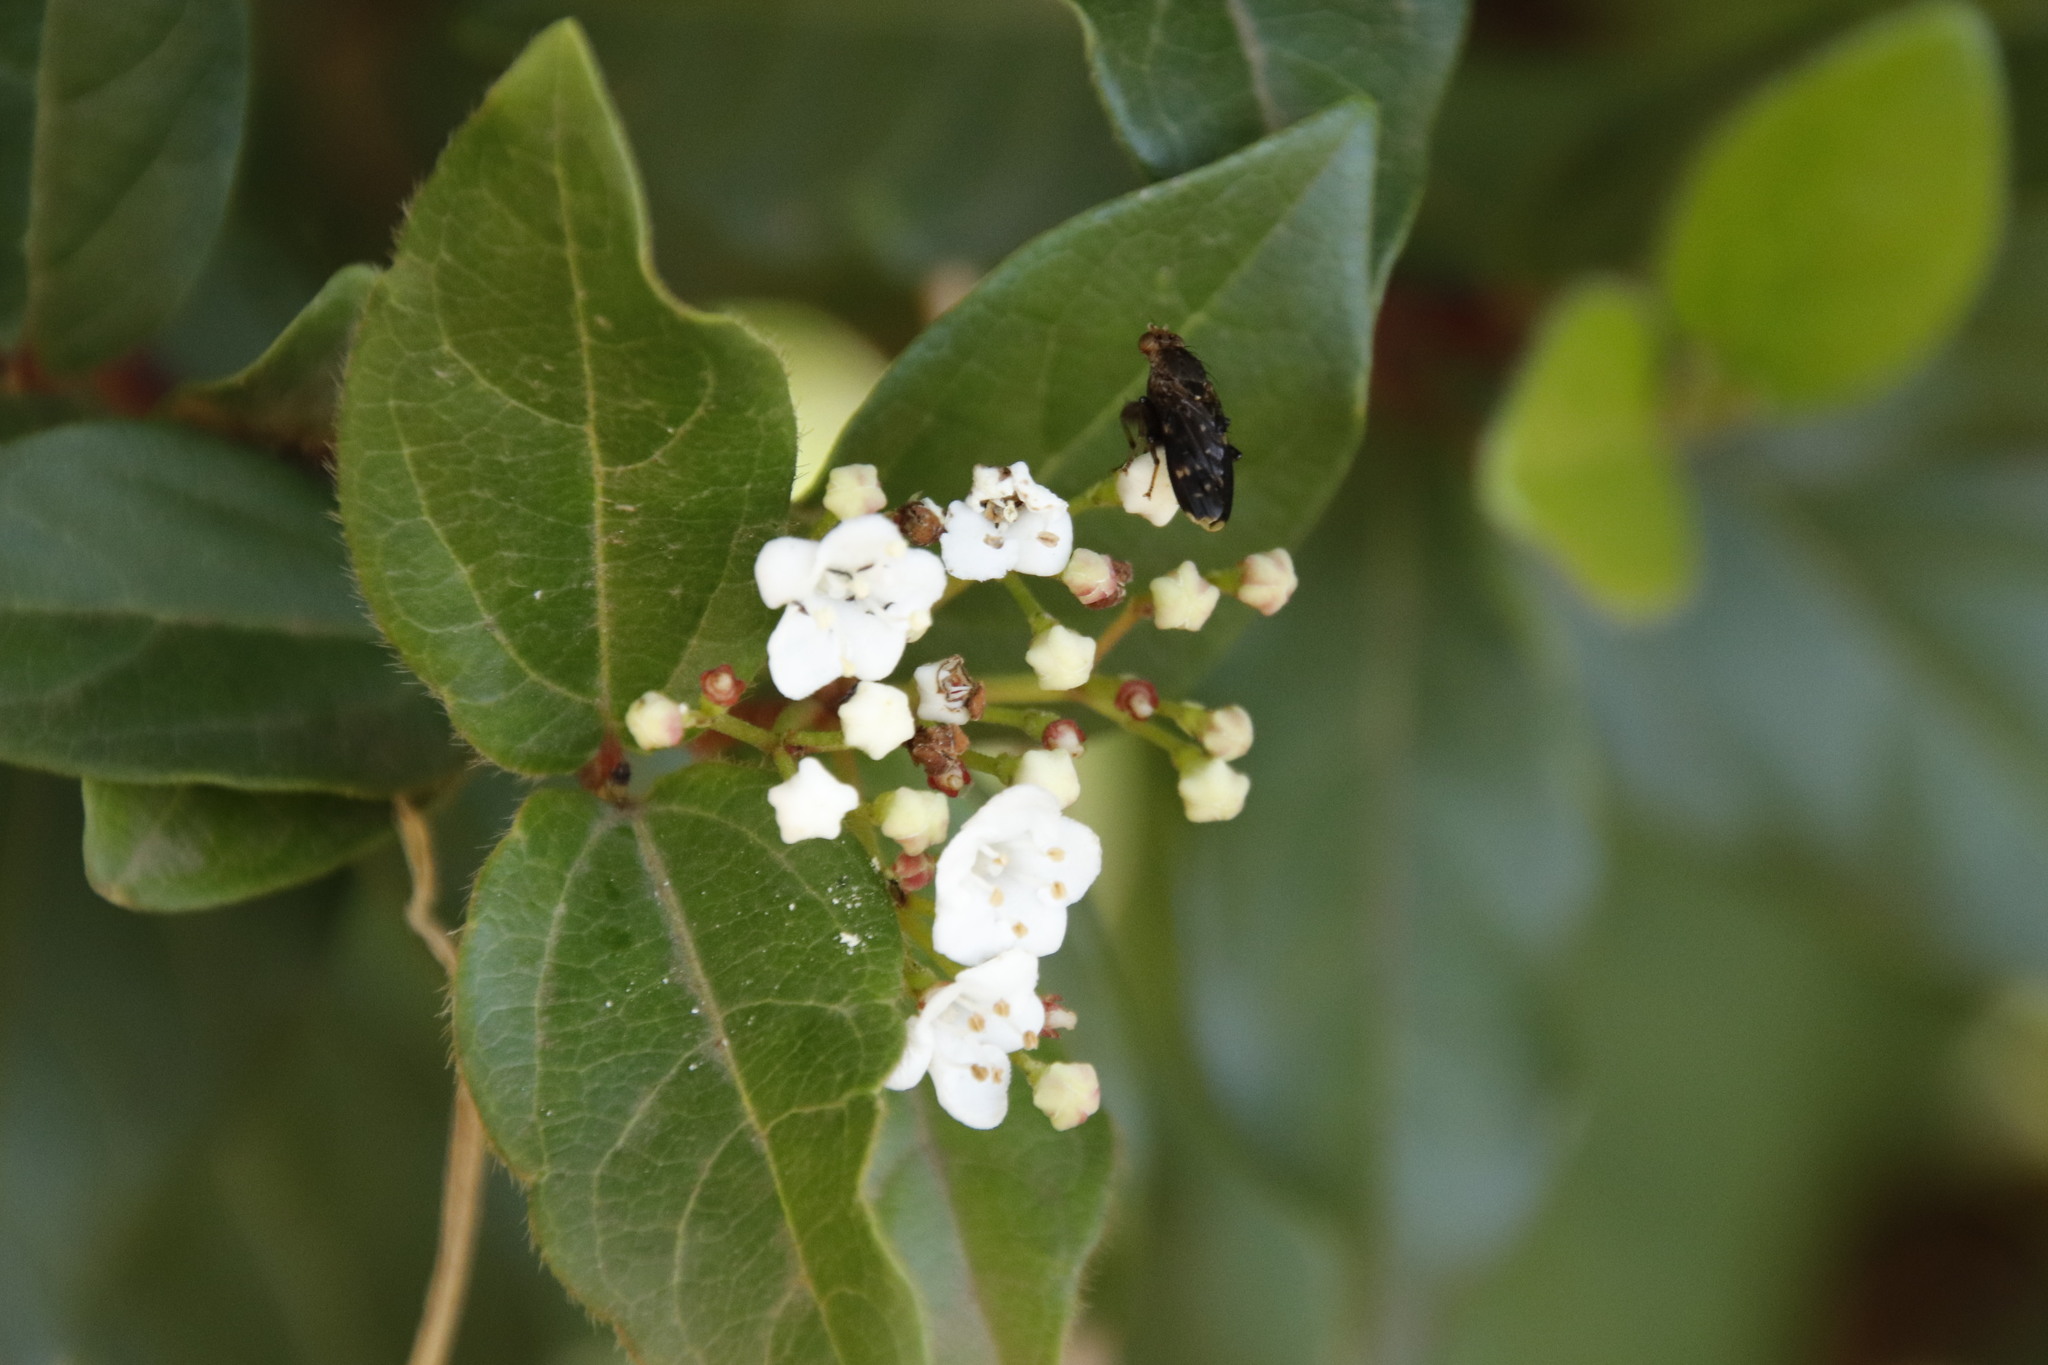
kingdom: Animalia
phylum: Arthropoda
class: Insecta
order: Diptera
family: Heleomyzidae
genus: Suillia
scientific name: Suillia picta
